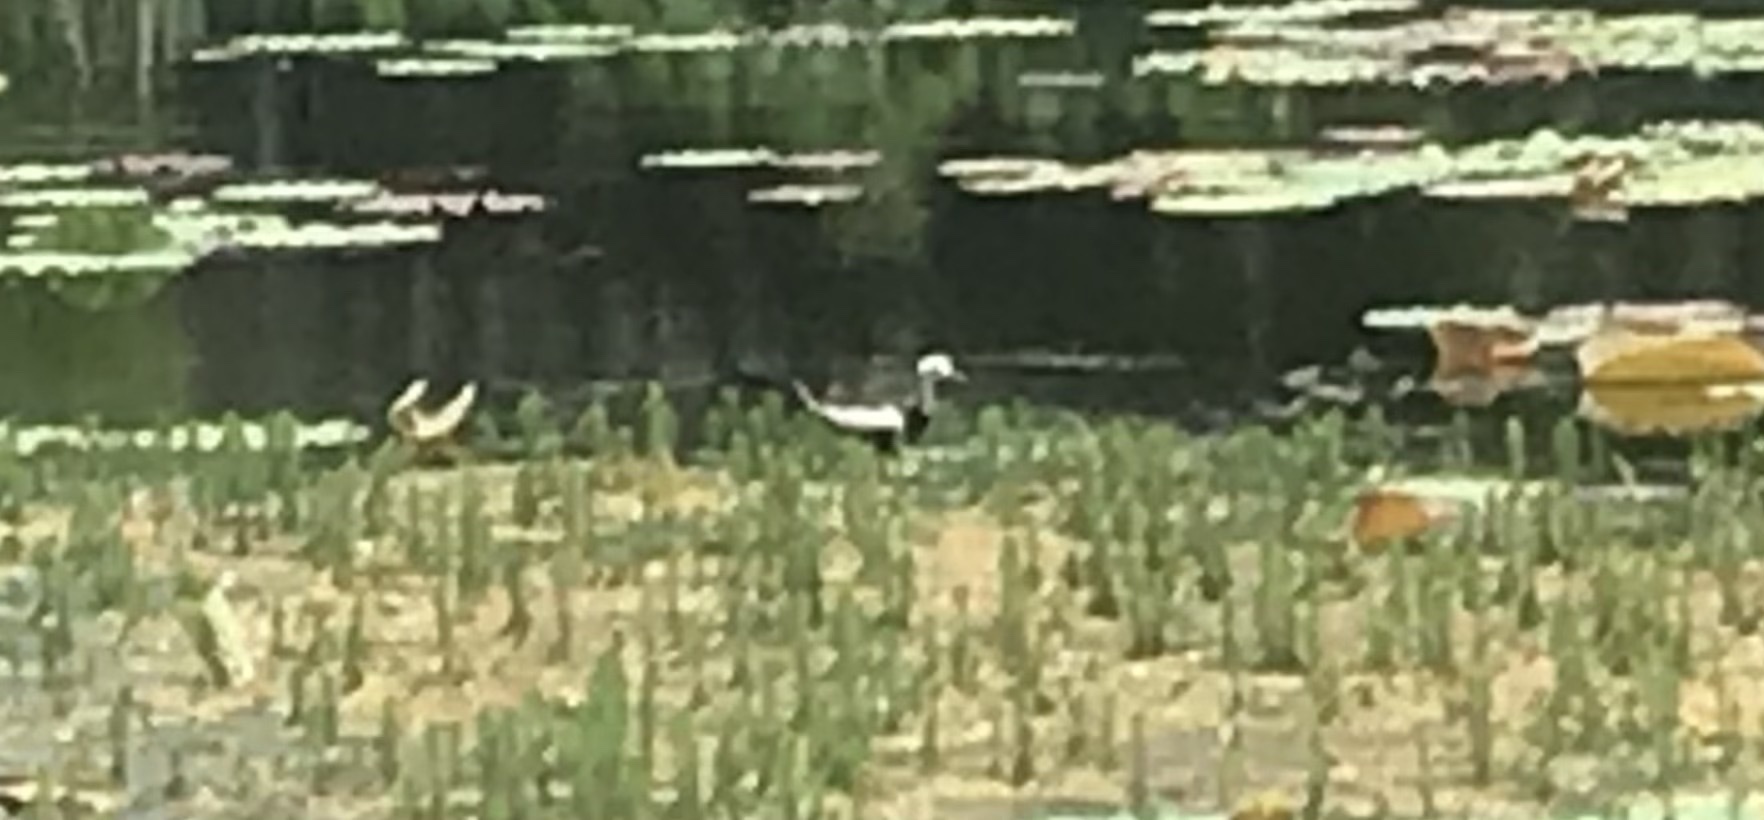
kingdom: Animalia
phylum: Chordata
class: Aves
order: Charadriiformes
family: Jacanidae
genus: Hydrophasianus
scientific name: Hydrophasianus chirurgus
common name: Pheasant-tailed jacana
